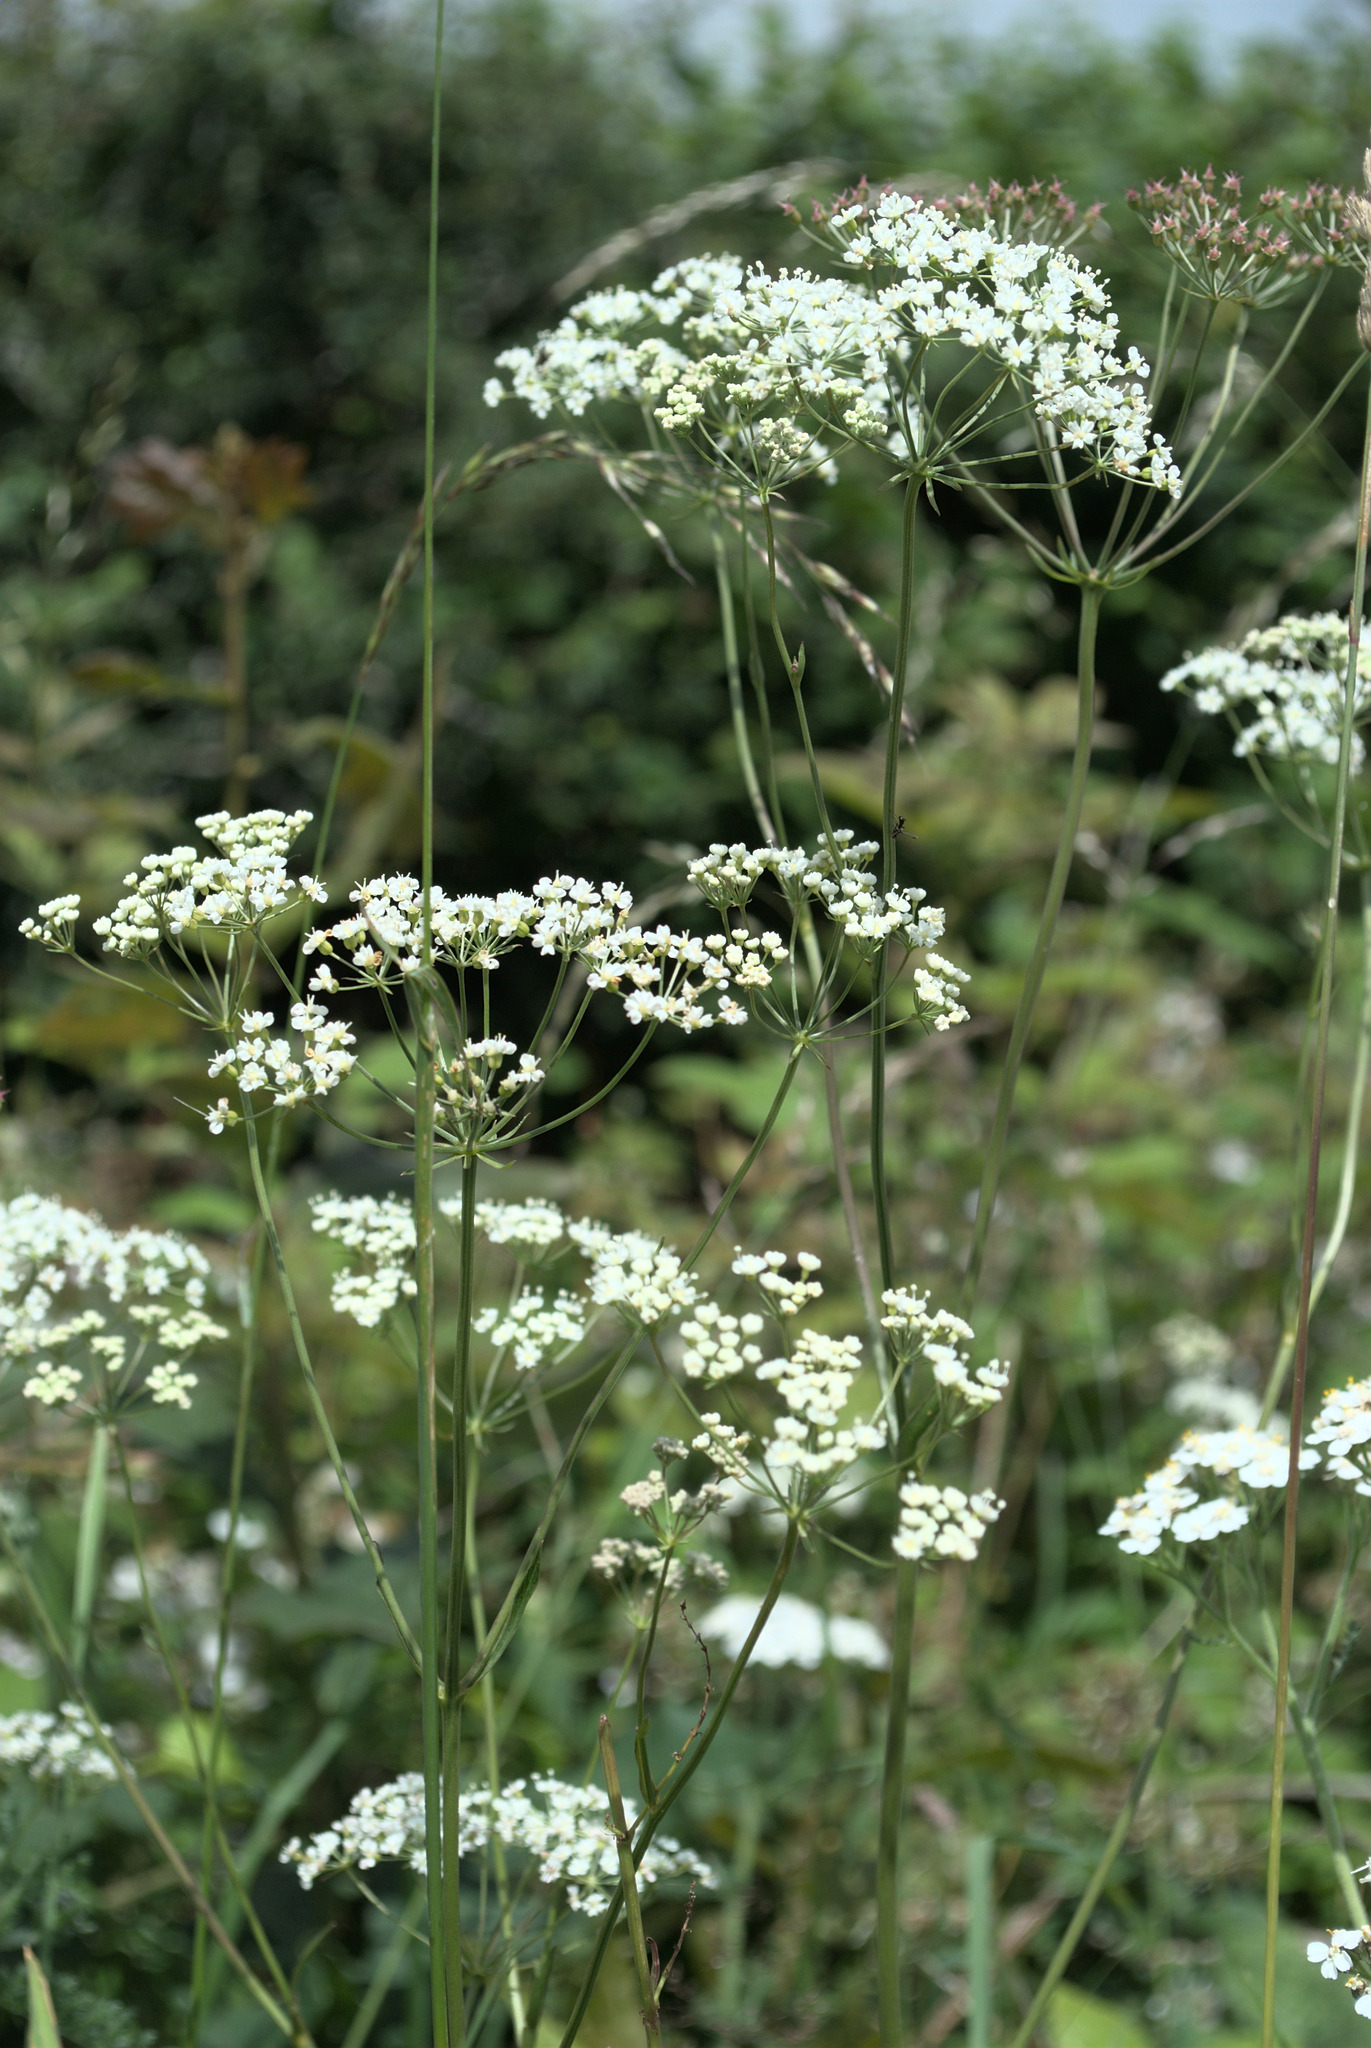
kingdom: Plantae
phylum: Tracheophyta
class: Magnoliopsida
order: Apiales
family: Apiaceae
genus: Physospermum
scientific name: Physospermum cornubiense
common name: Bladderseed
